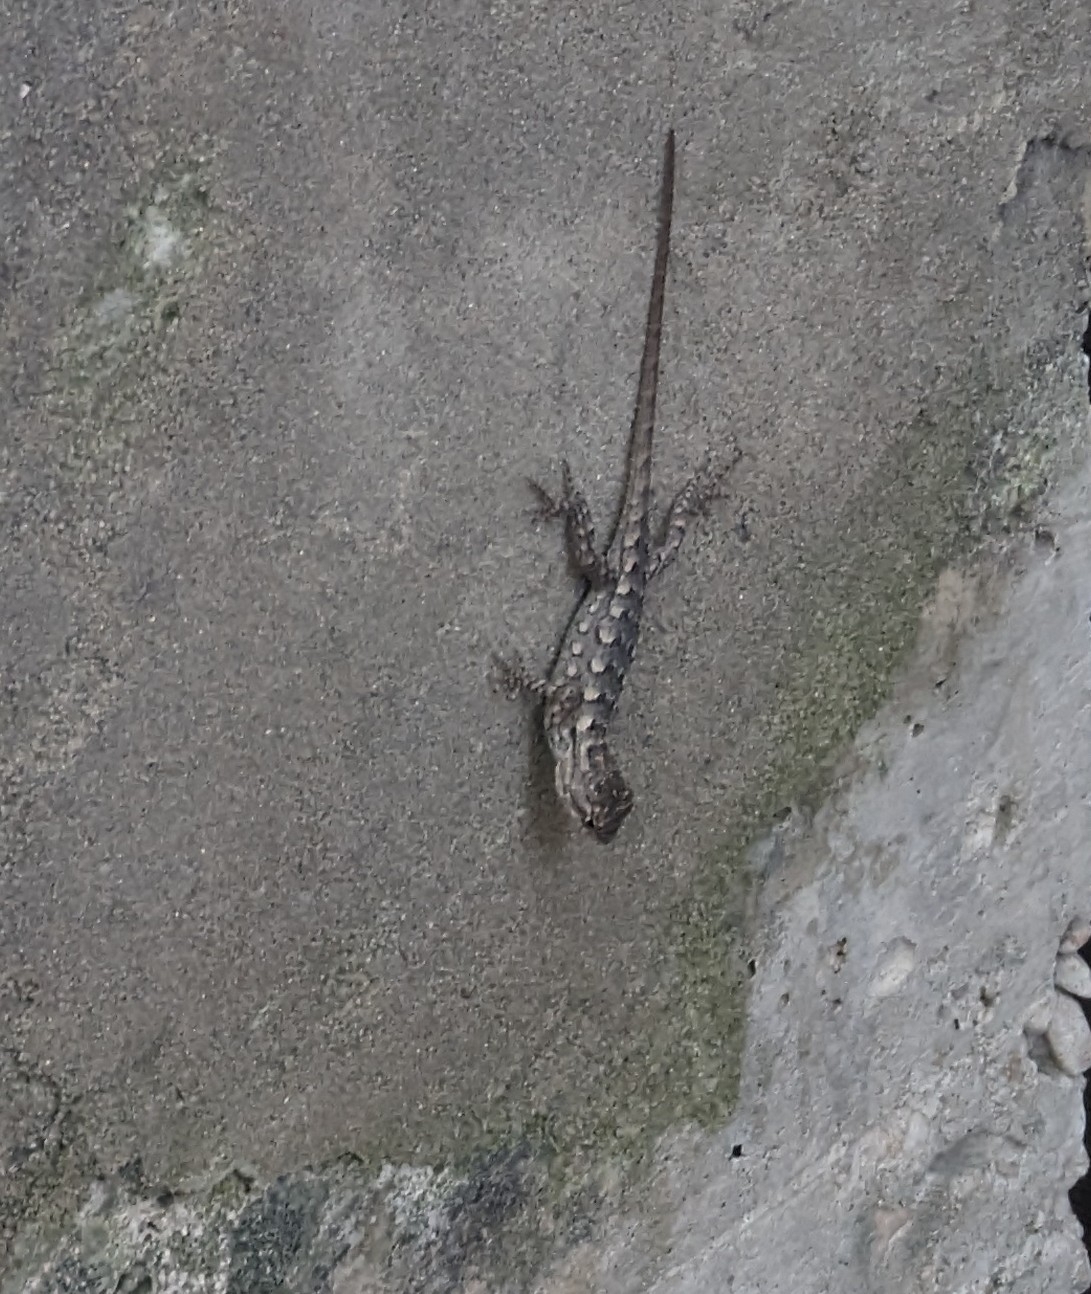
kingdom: Animalia
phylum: Chordata
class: Squamata
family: Phrynosomatidae
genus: Sceloporus
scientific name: Sceloporus olivaceus
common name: Texas spiny lizard
